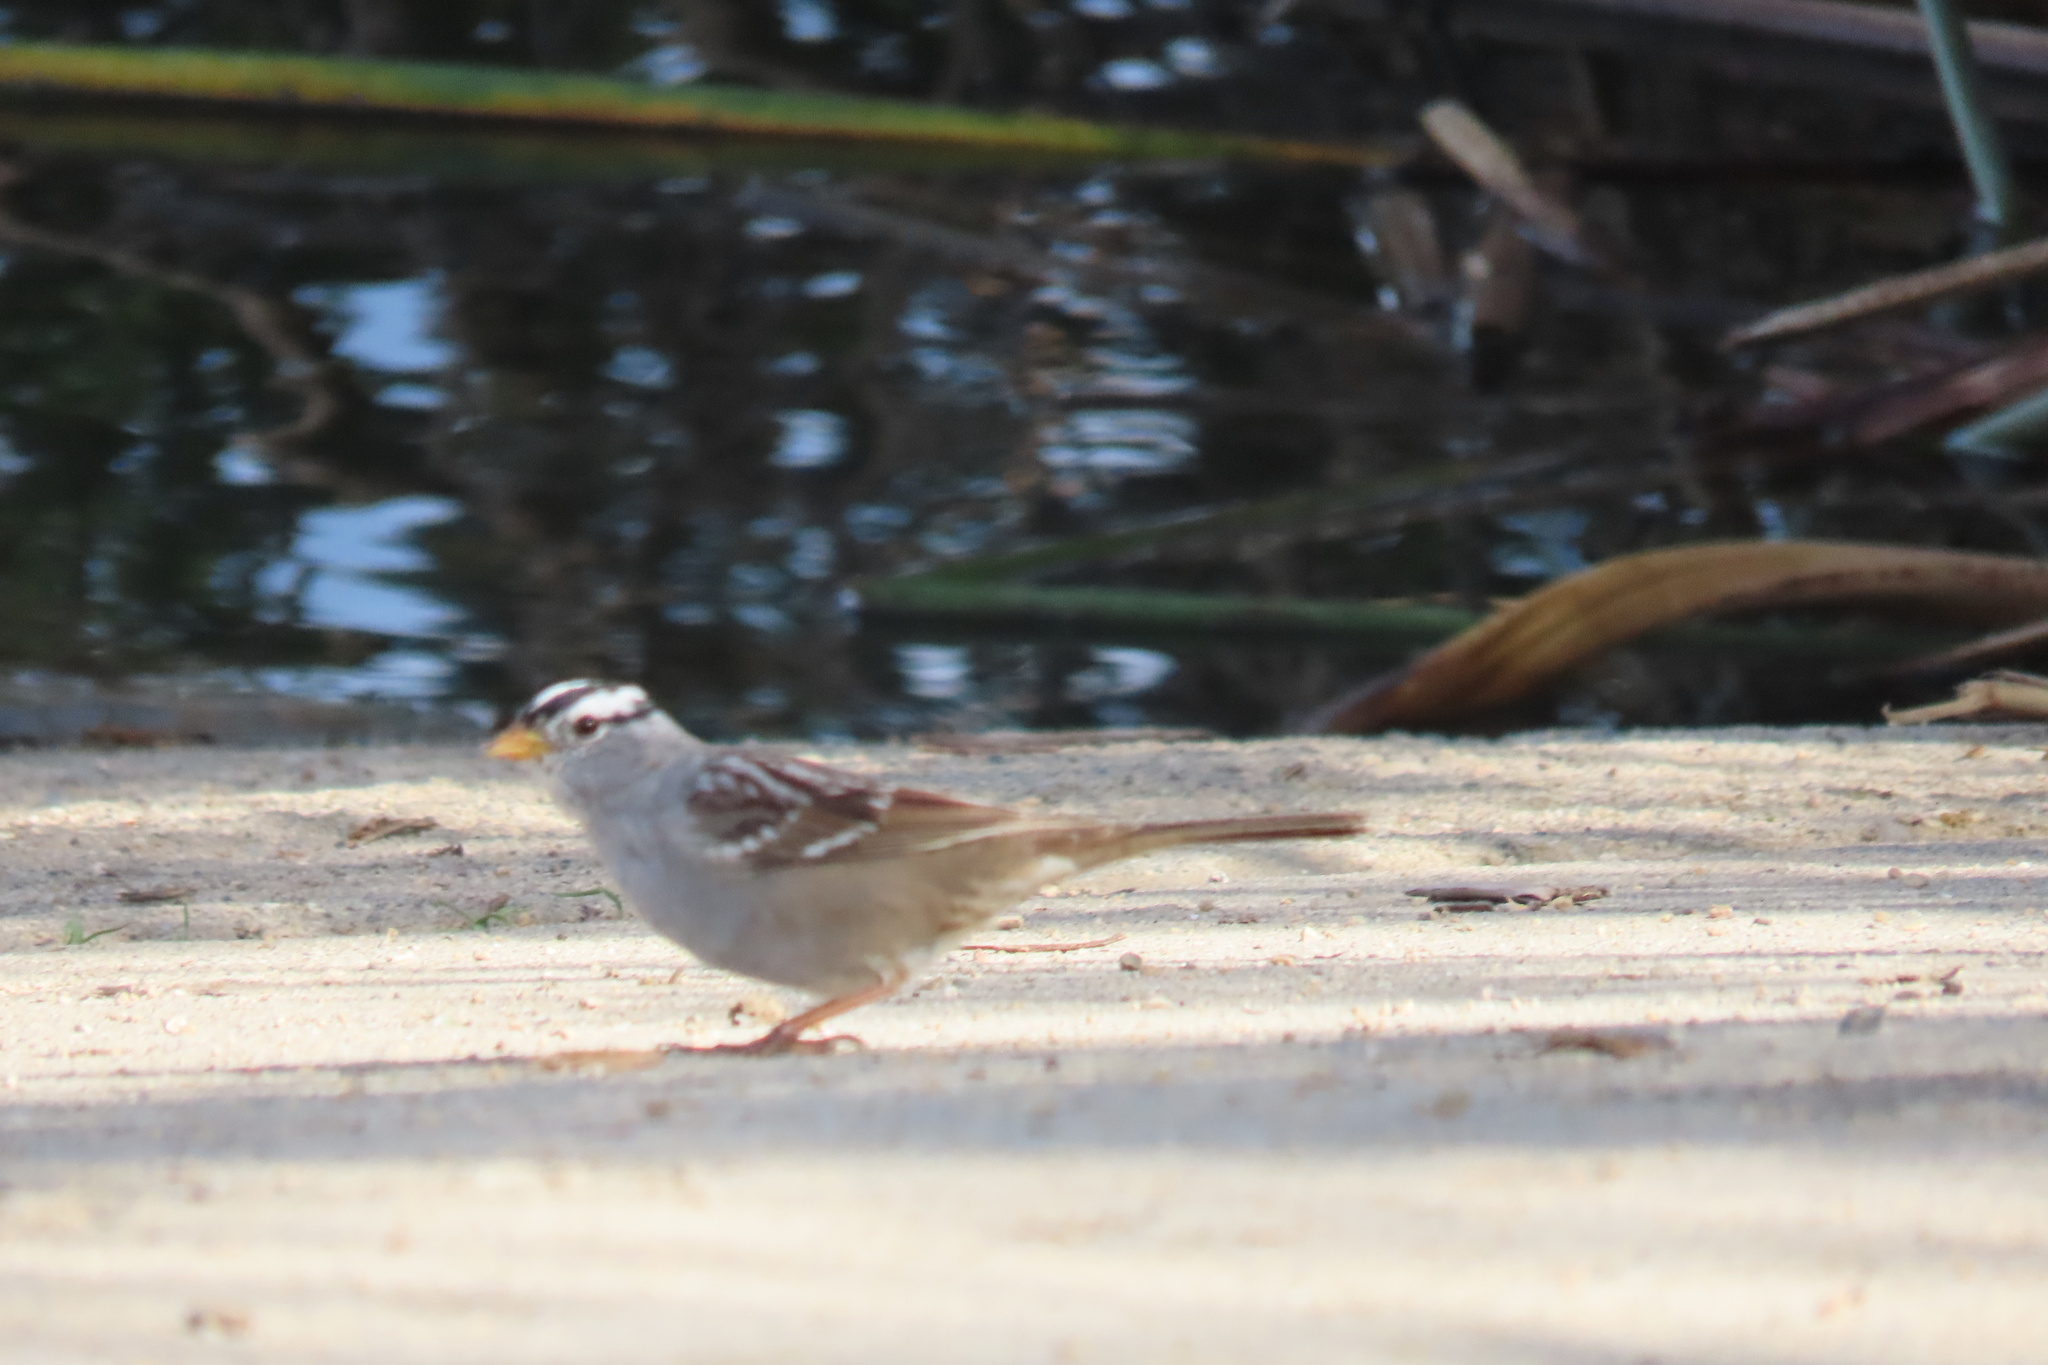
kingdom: Animalia
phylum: Chordata
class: Aves
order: Passeriformes
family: Passerellidae
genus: Zonotrichia
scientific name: Zonotrichia leucophrys
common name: White-crowned sparrow
